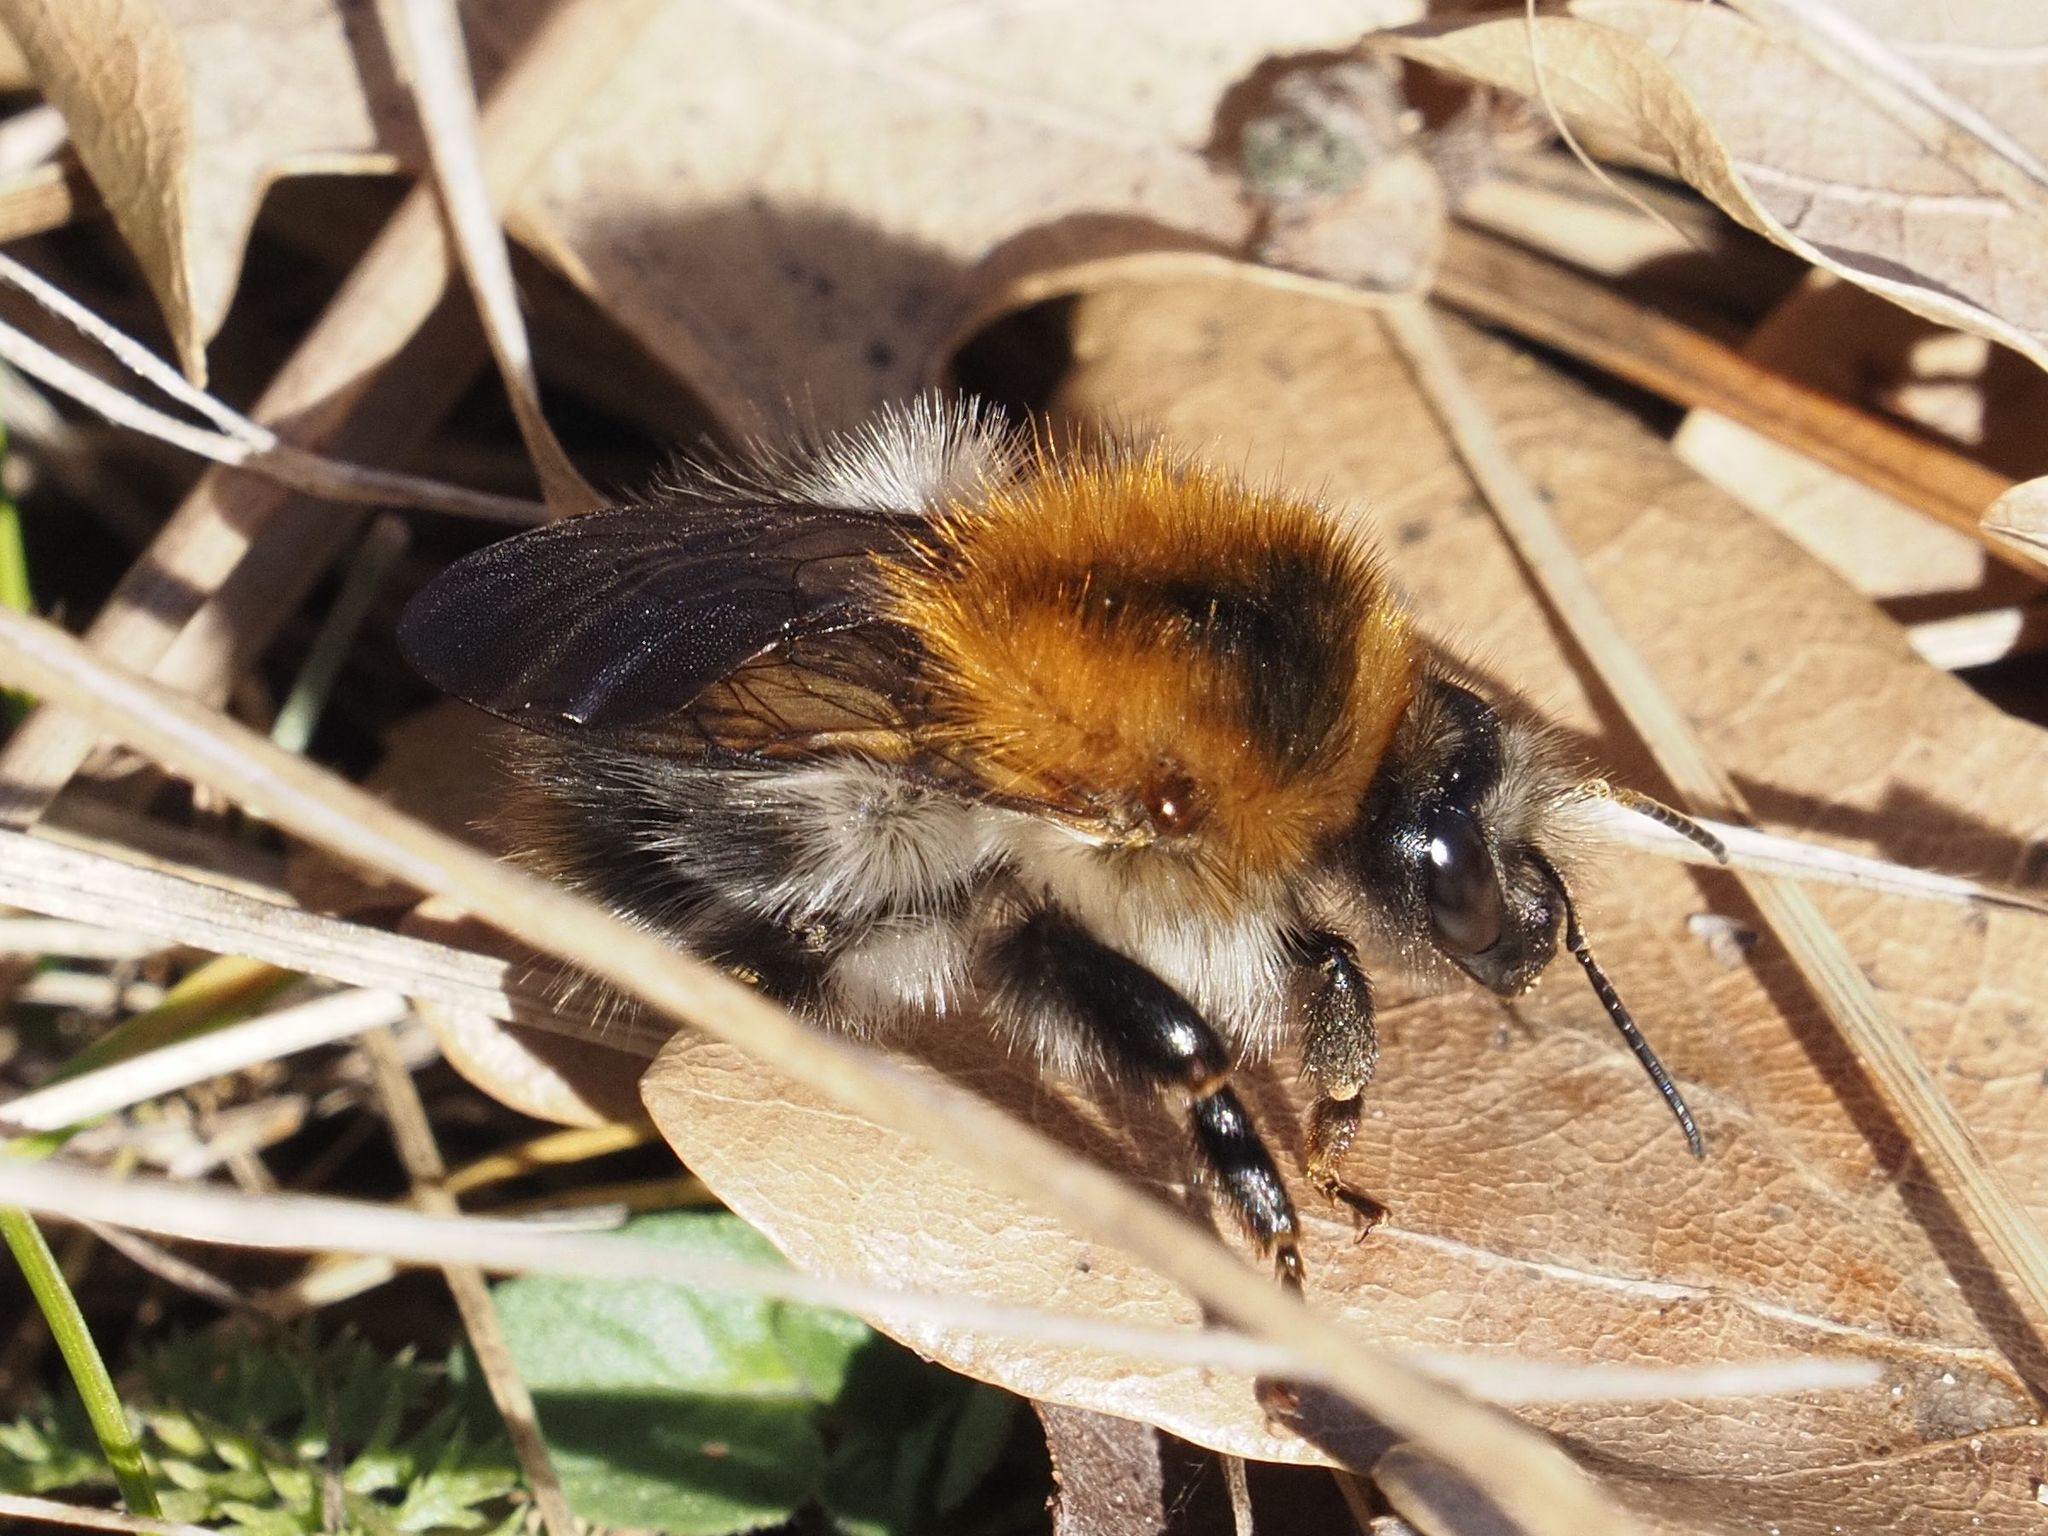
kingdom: Animalia
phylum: Arthropoda
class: Insecta
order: Hymenoptera
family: Apidae
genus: Bombus
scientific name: Bombus pascuorum
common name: Common carder bee
